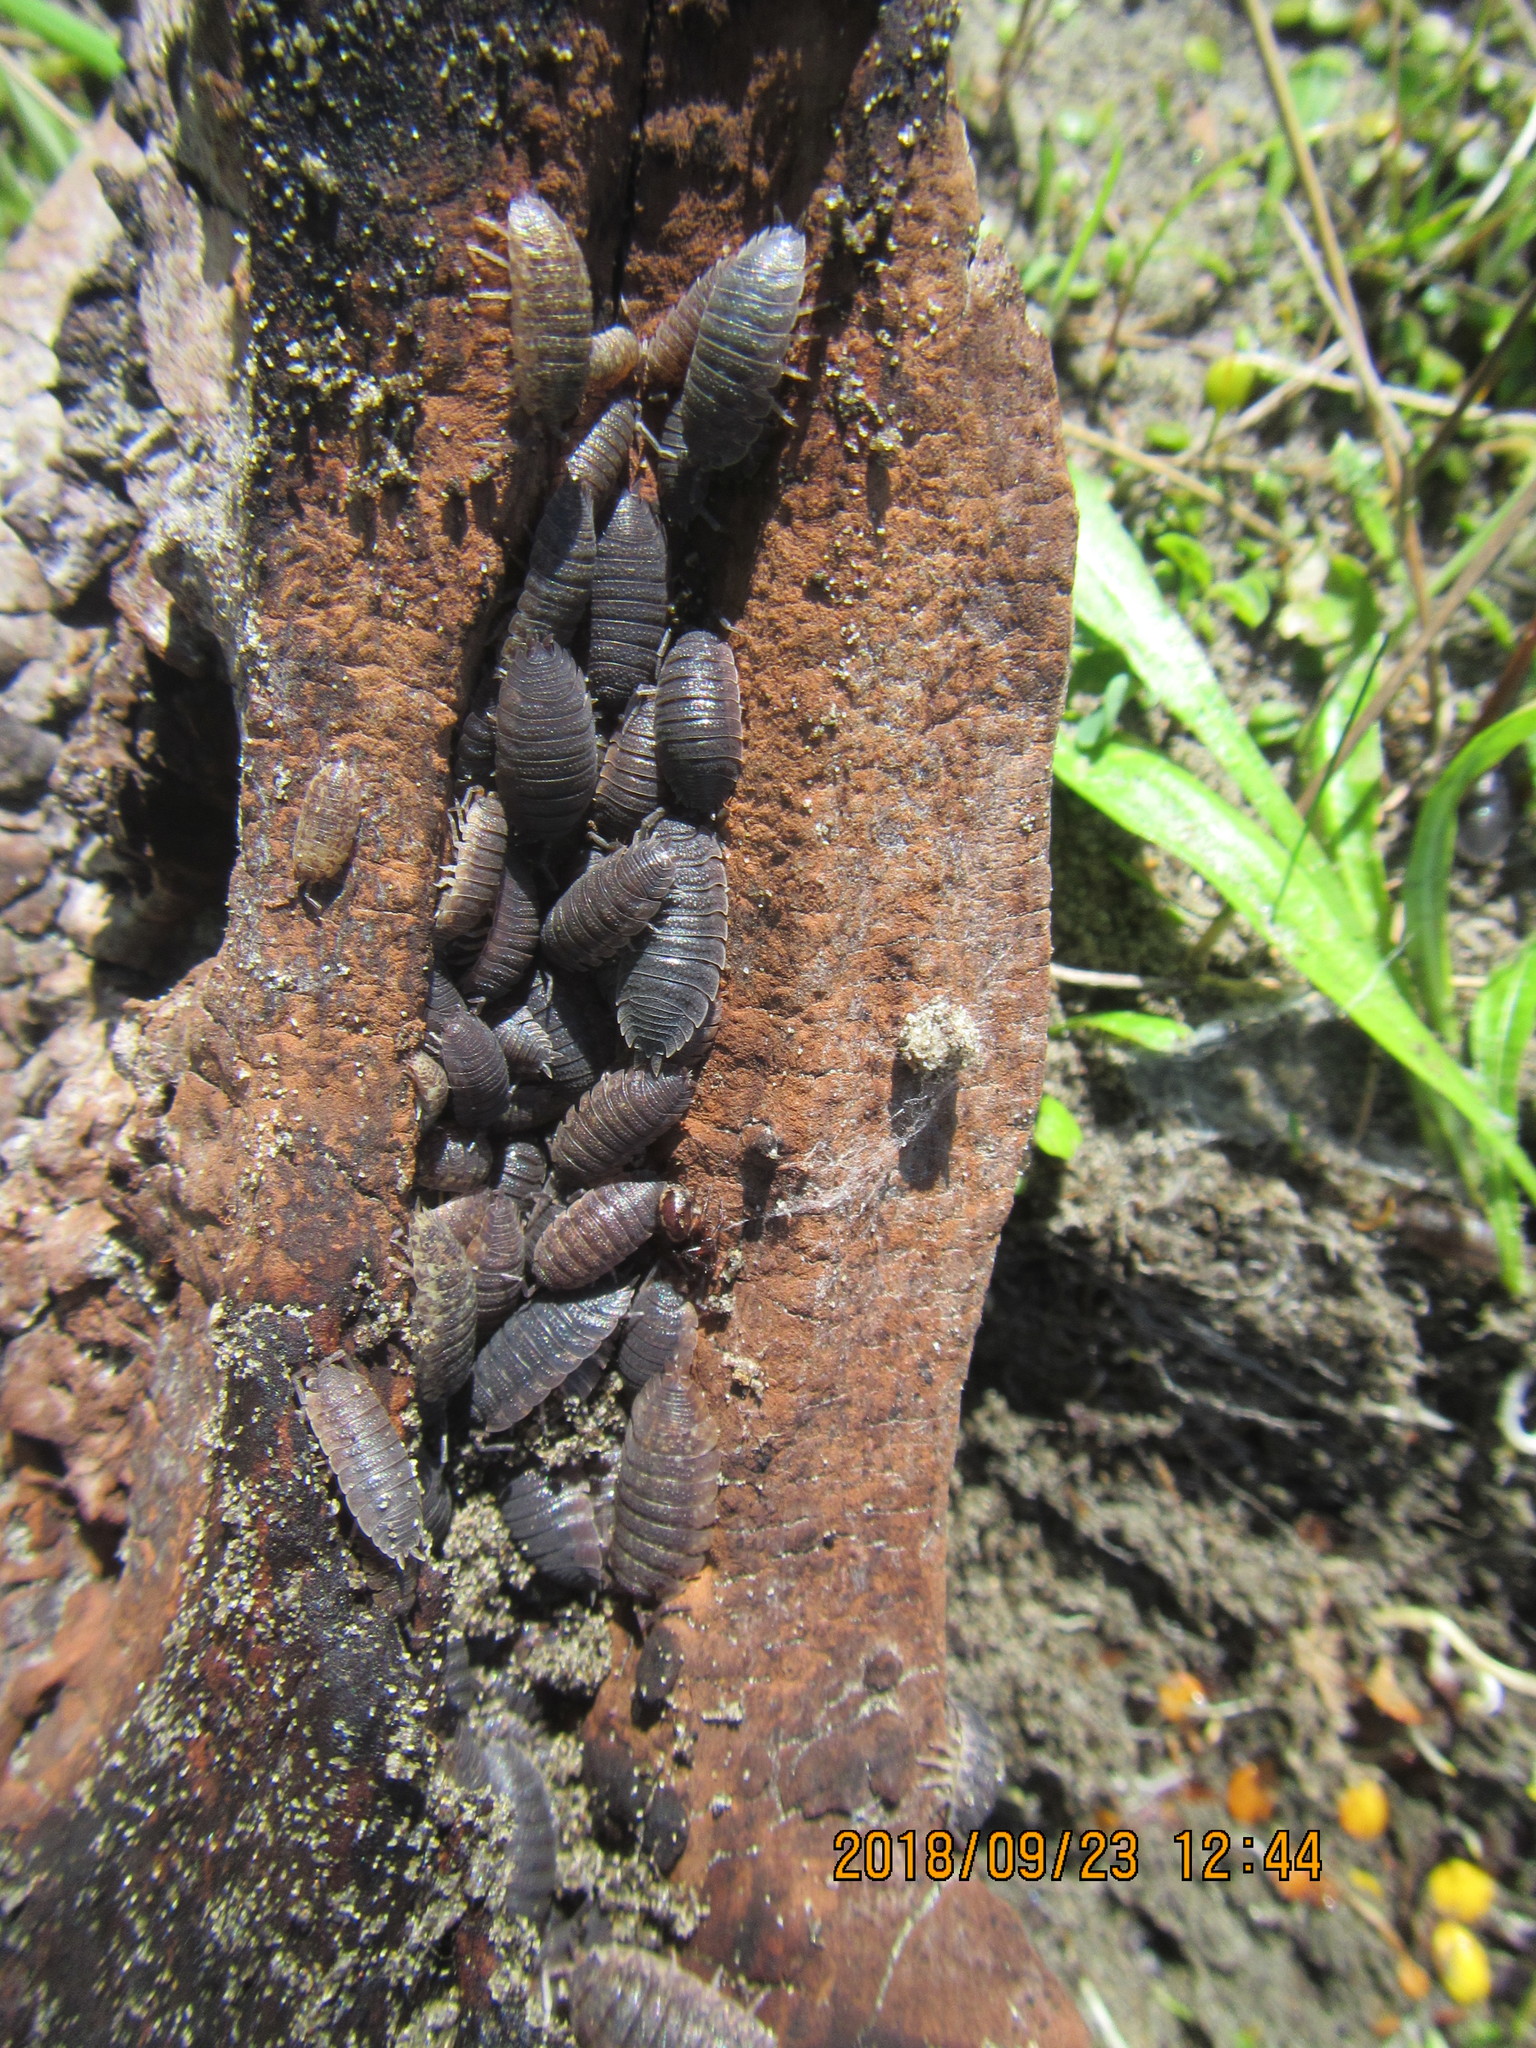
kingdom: Animalia
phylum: Arthropoda
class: Arachnida
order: Araneae
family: Dysderidae
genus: Dysdera
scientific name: Dysdera crocata
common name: Woodlouse spider
